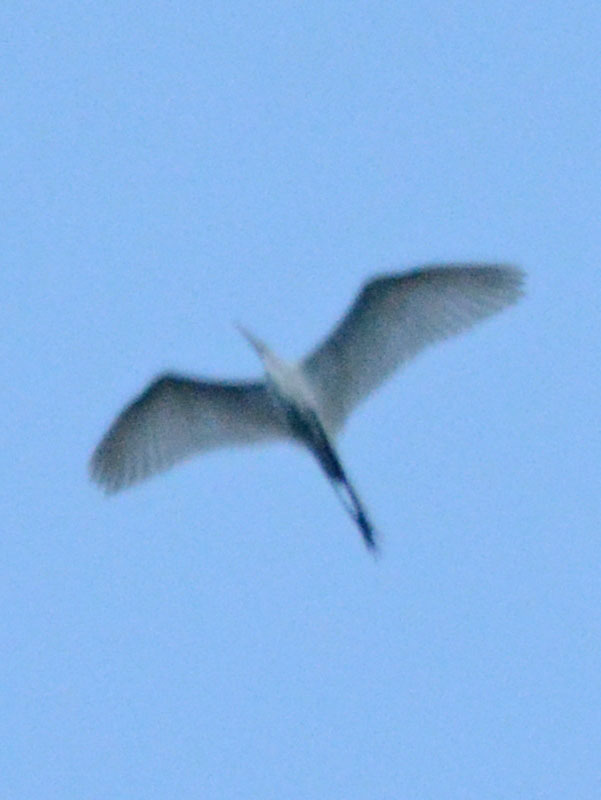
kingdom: Animalia
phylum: Chordata
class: Aves
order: Pelecaniformes
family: Ardeidae
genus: Ardea
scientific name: Ardea alba
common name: Great egret
